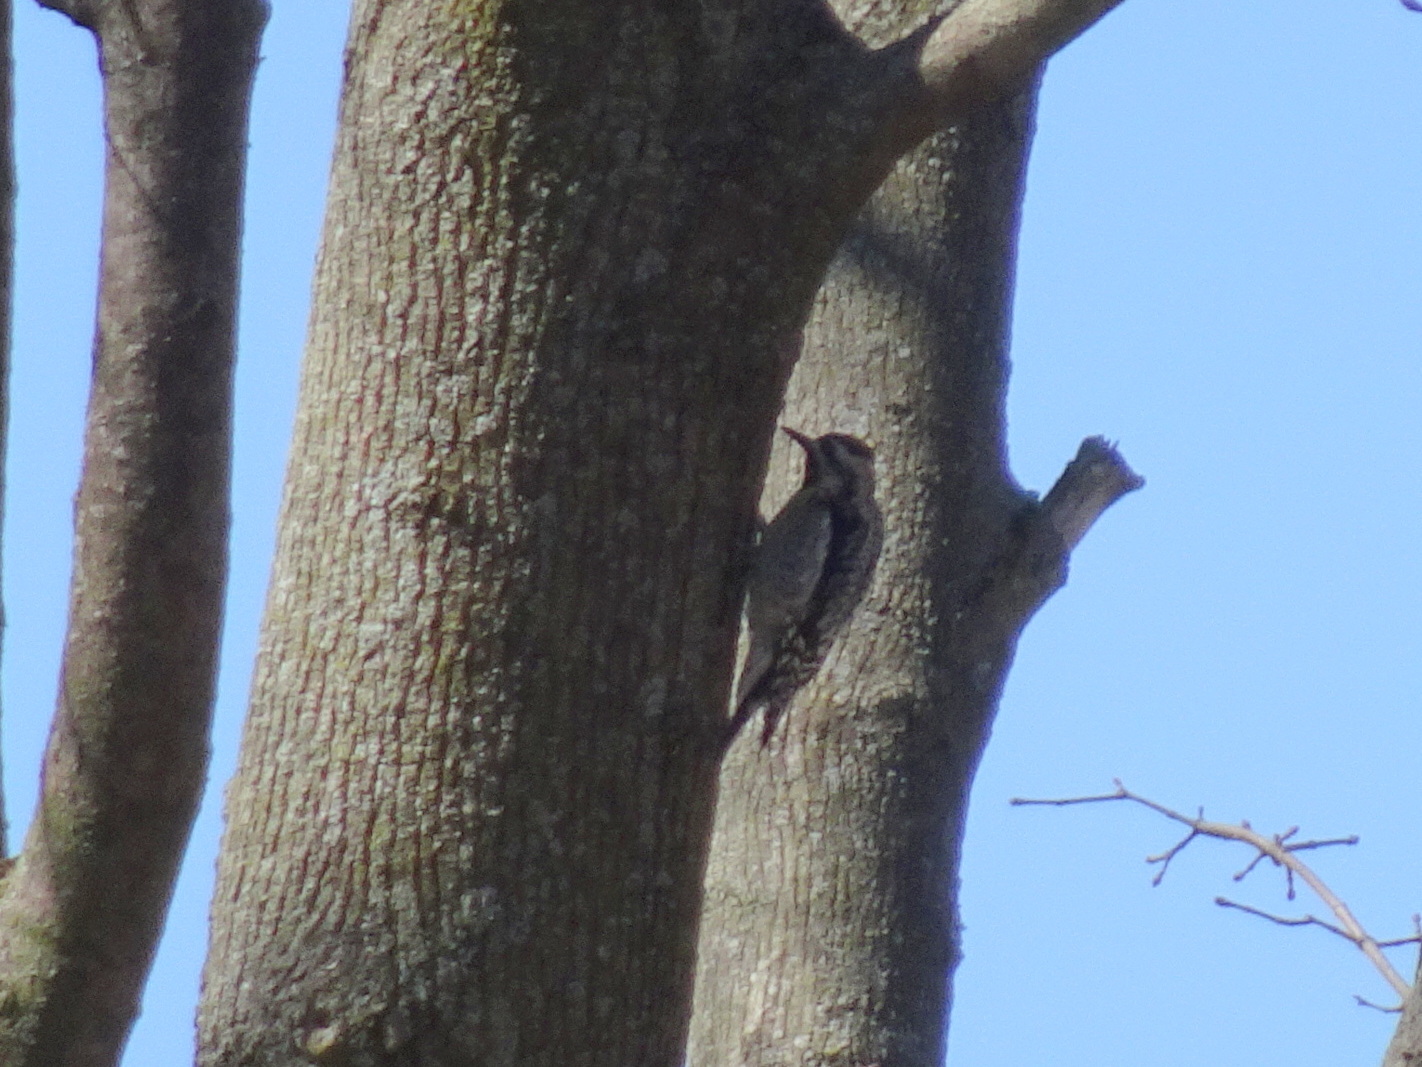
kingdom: Animalia
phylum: Chordata
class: Aves
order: Piciformes
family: Picidae
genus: Sphyrapicus
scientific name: Sphyrapicus varius
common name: Yellow-bellied sapsucker
